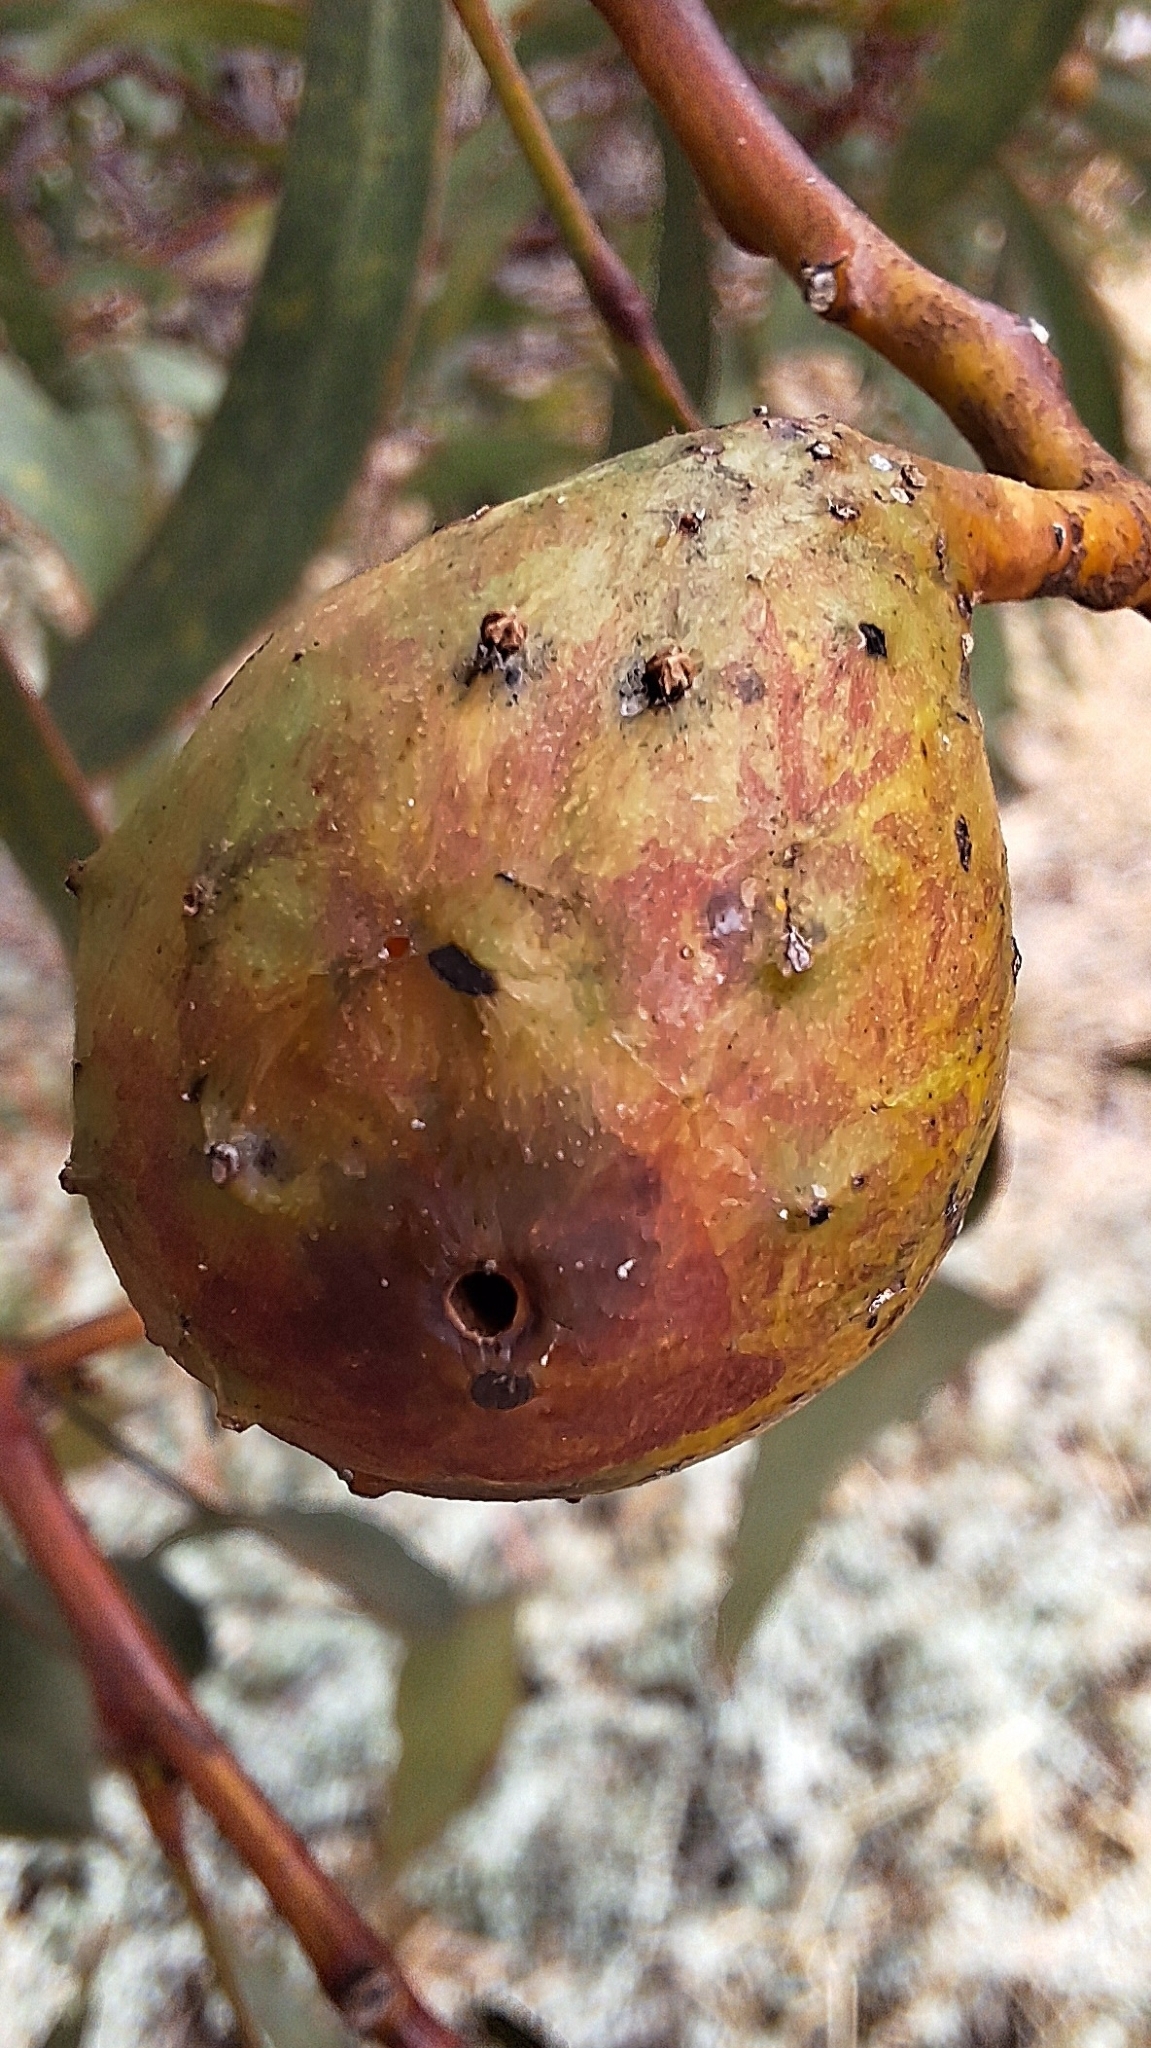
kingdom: Animalia
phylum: Arthropoda
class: Insecta
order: Hymenoptera
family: Pteromalidae
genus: Trichilogaster
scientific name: Trichilogaster signiventris
